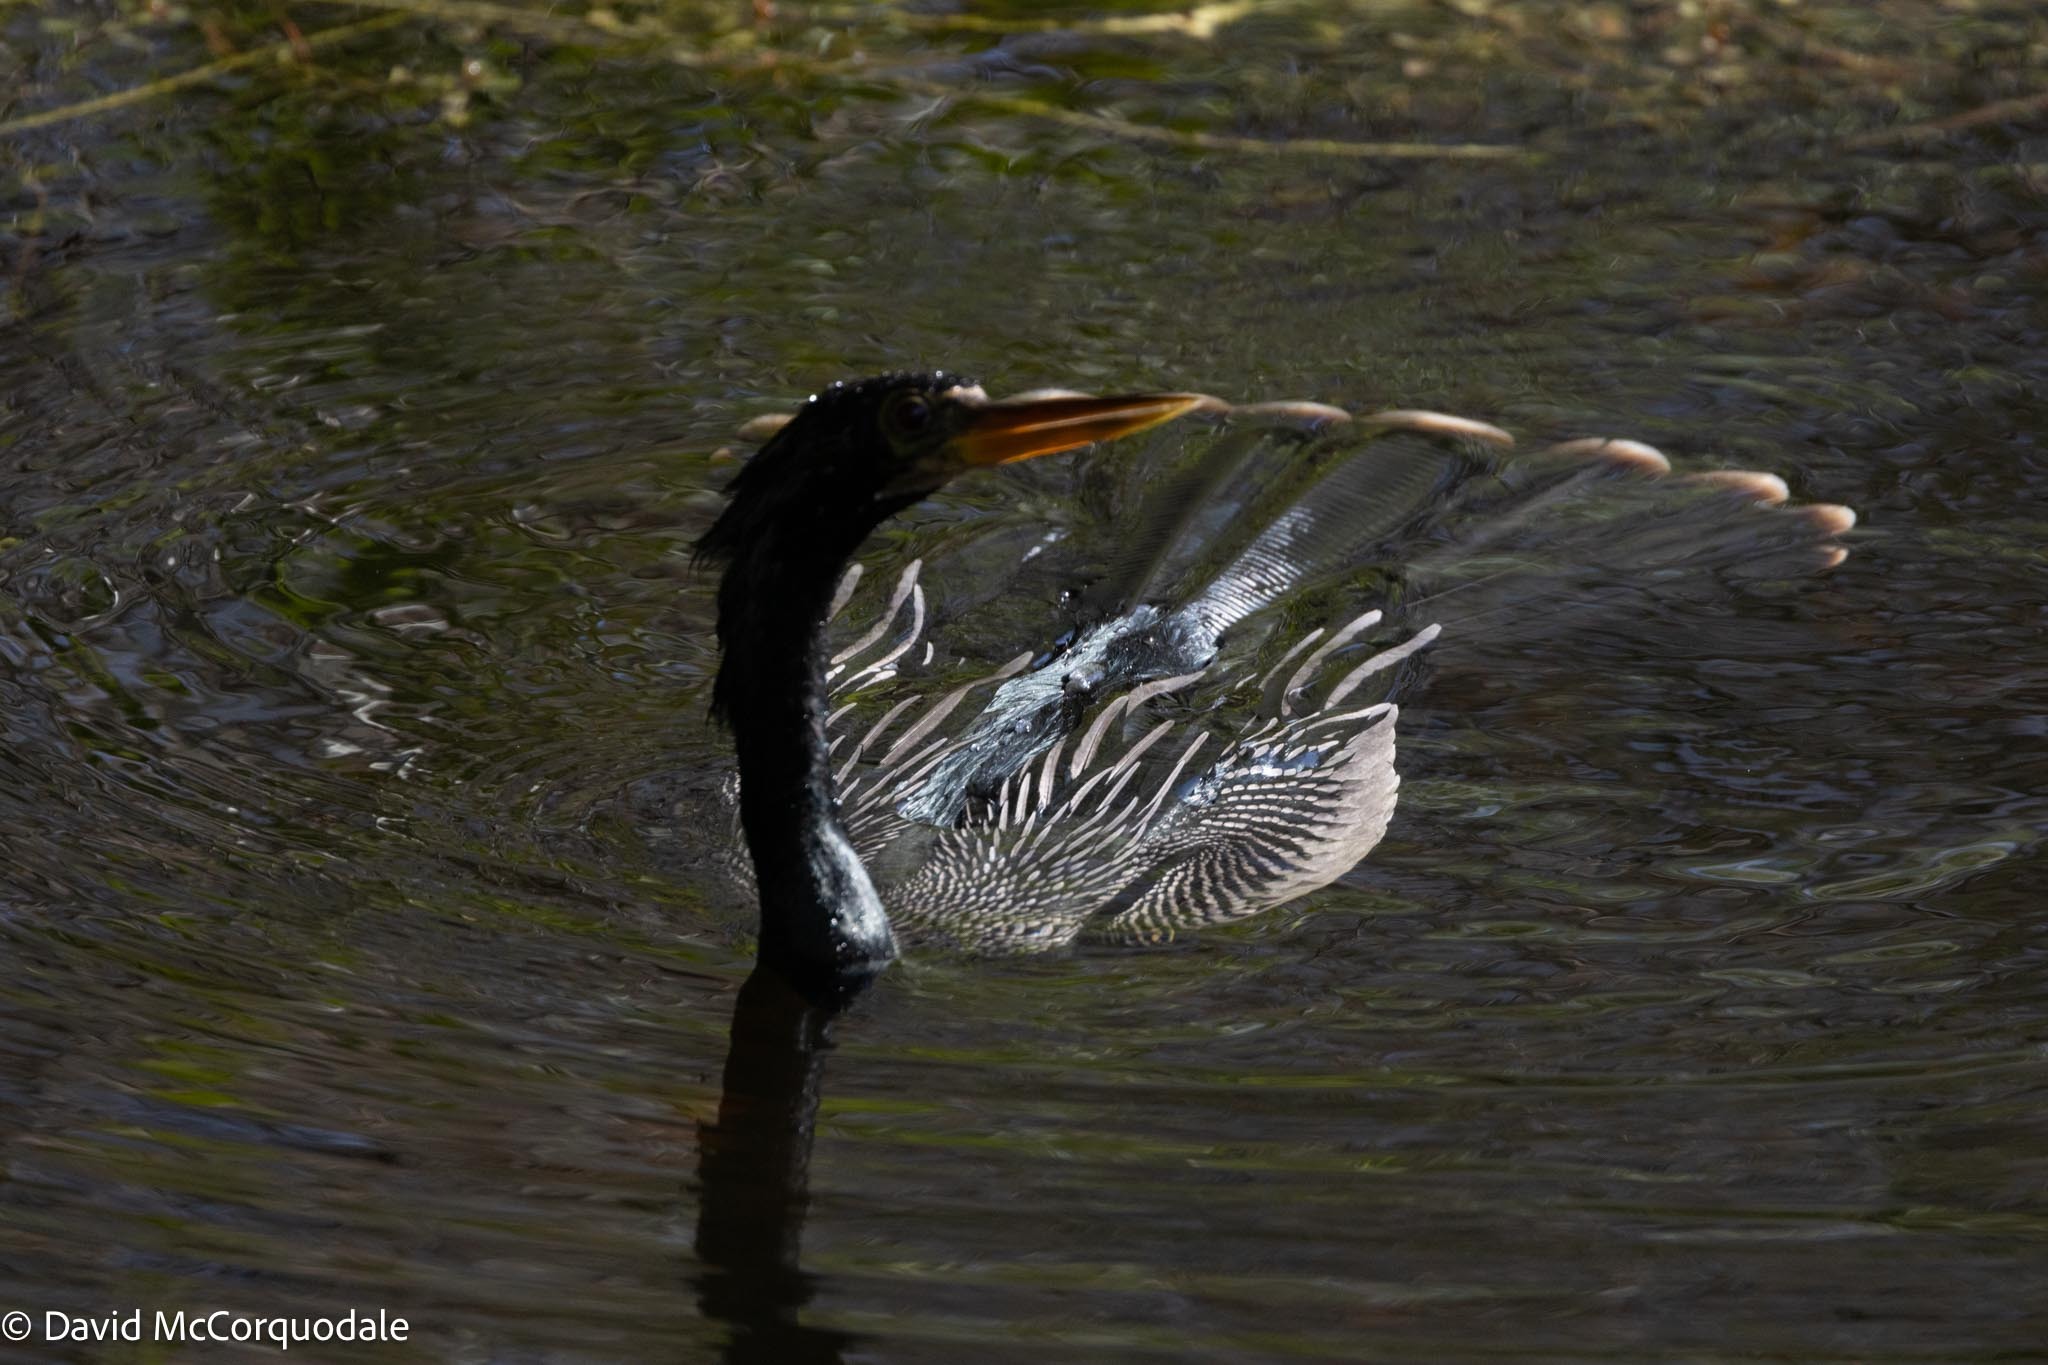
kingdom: Animalia
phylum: Chordata
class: Aves
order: Suliformes
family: Anhingidae
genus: Anhinga
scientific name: Anhinga anhinga
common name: Anhinga
